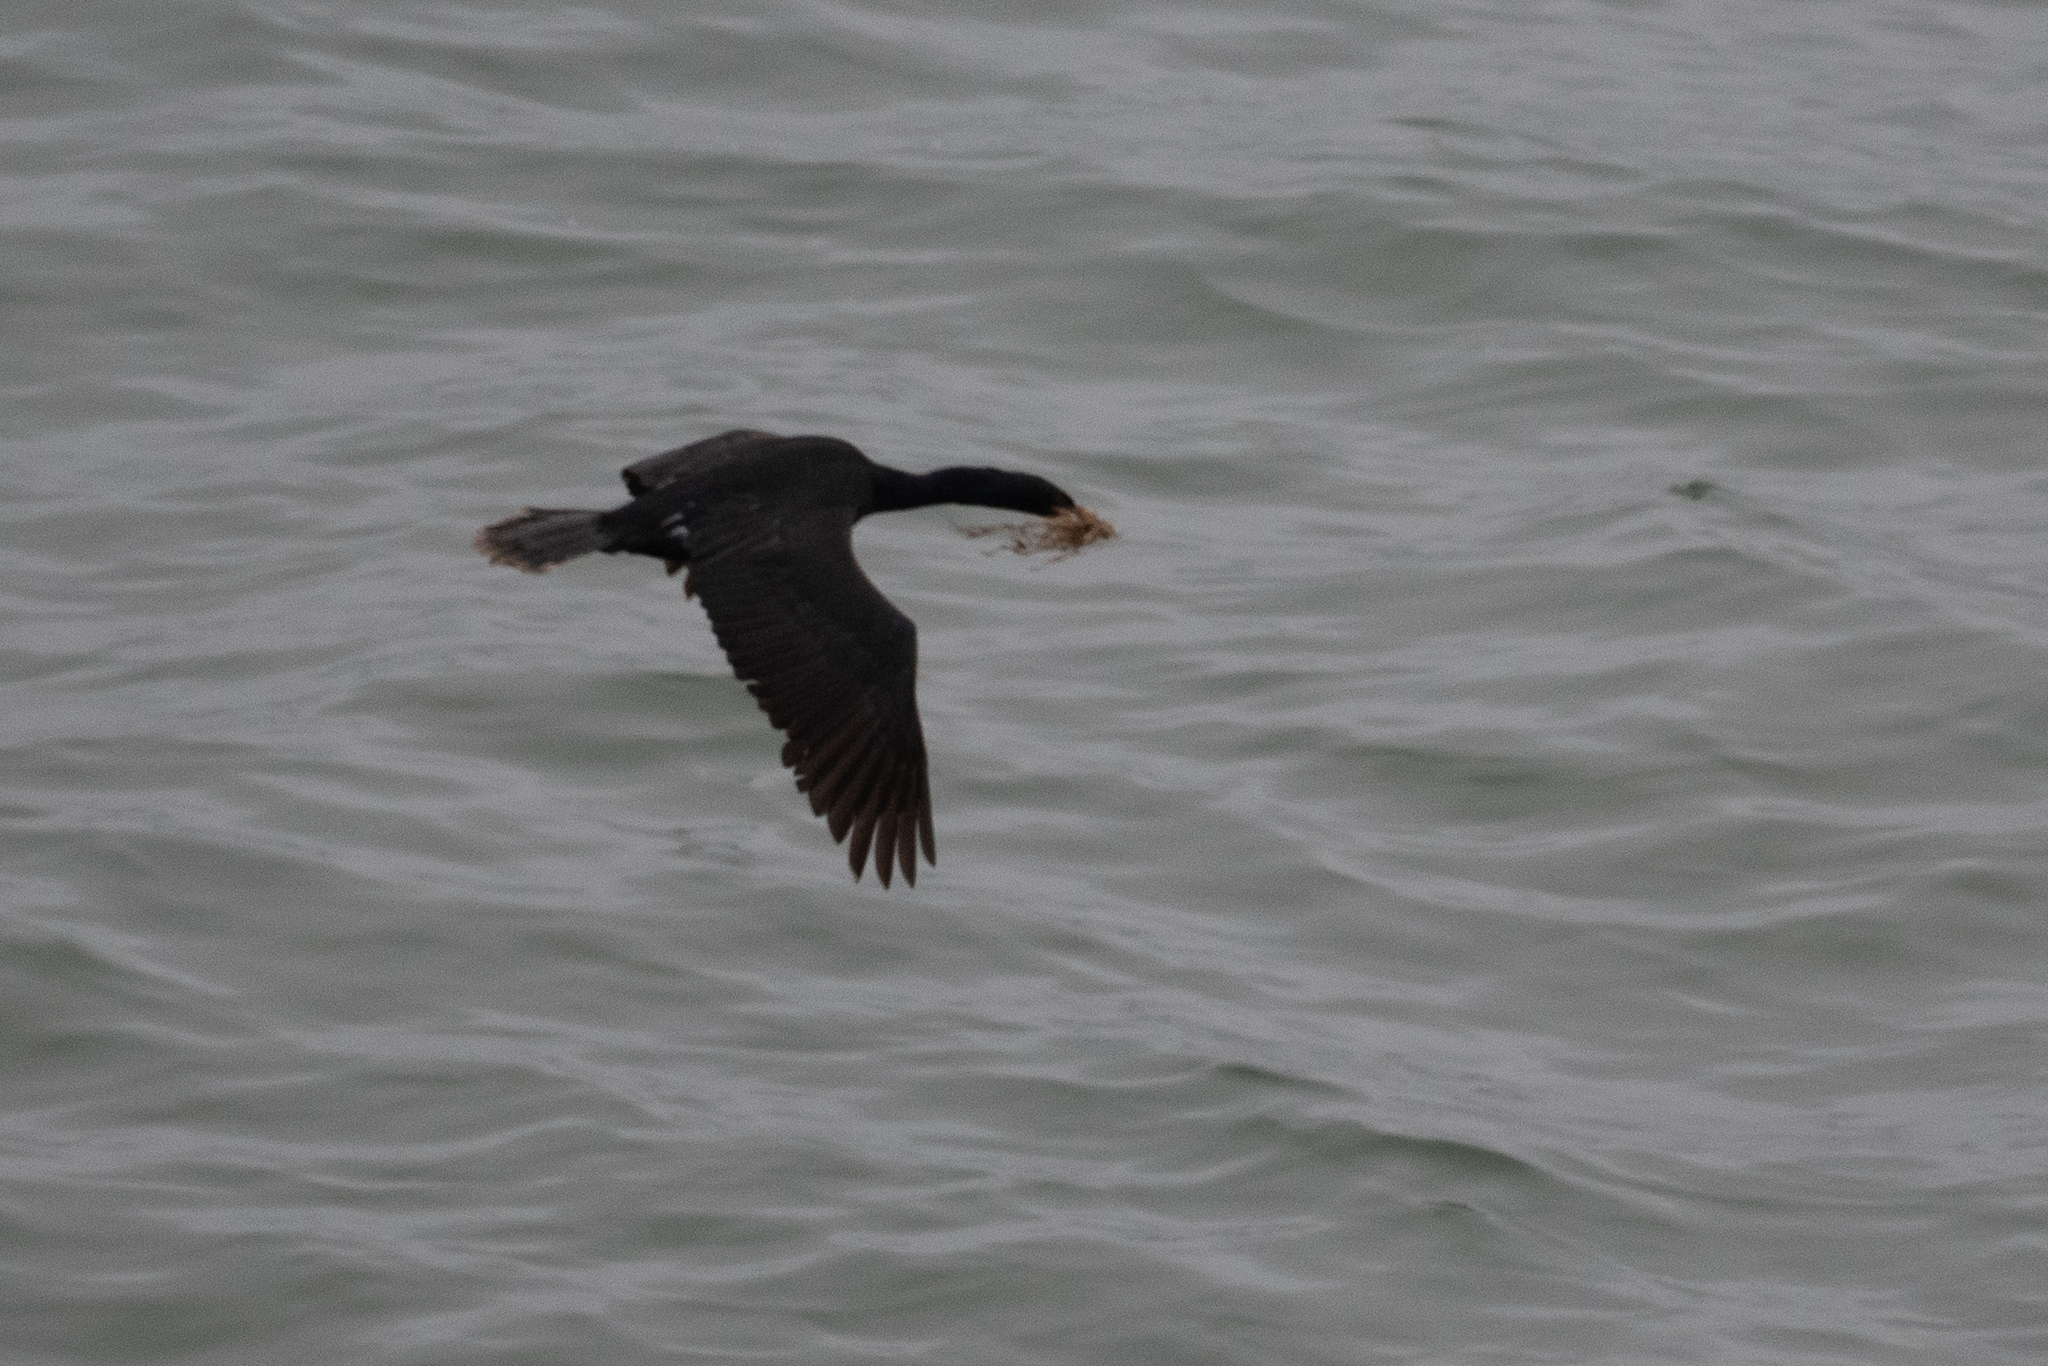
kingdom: Animalia
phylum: Chordata
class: Aves
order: Suliformes
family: Phalacrocoracidae
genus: Phalacrocorax
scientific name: Phalacrocorax pelagicus
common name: Pelagic cormorant
